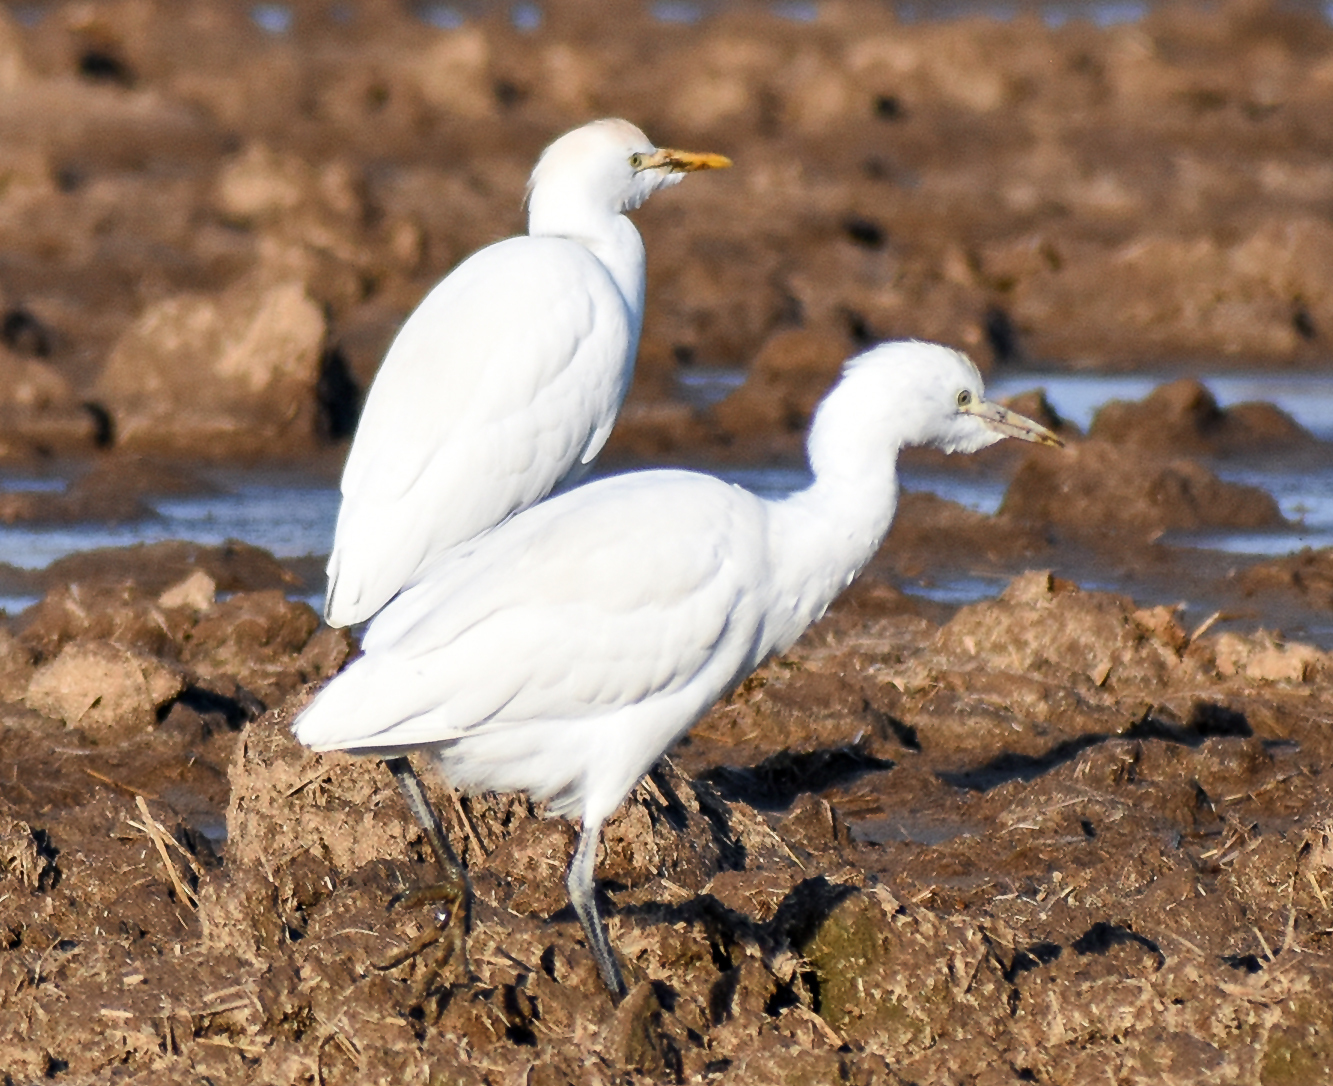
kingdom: Animalia
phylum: Chordata
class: Aves
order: Pelecaniformes
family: Ardeidae
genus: Bubulcus
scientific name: Bubulcus ibis
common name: Cattle egret
